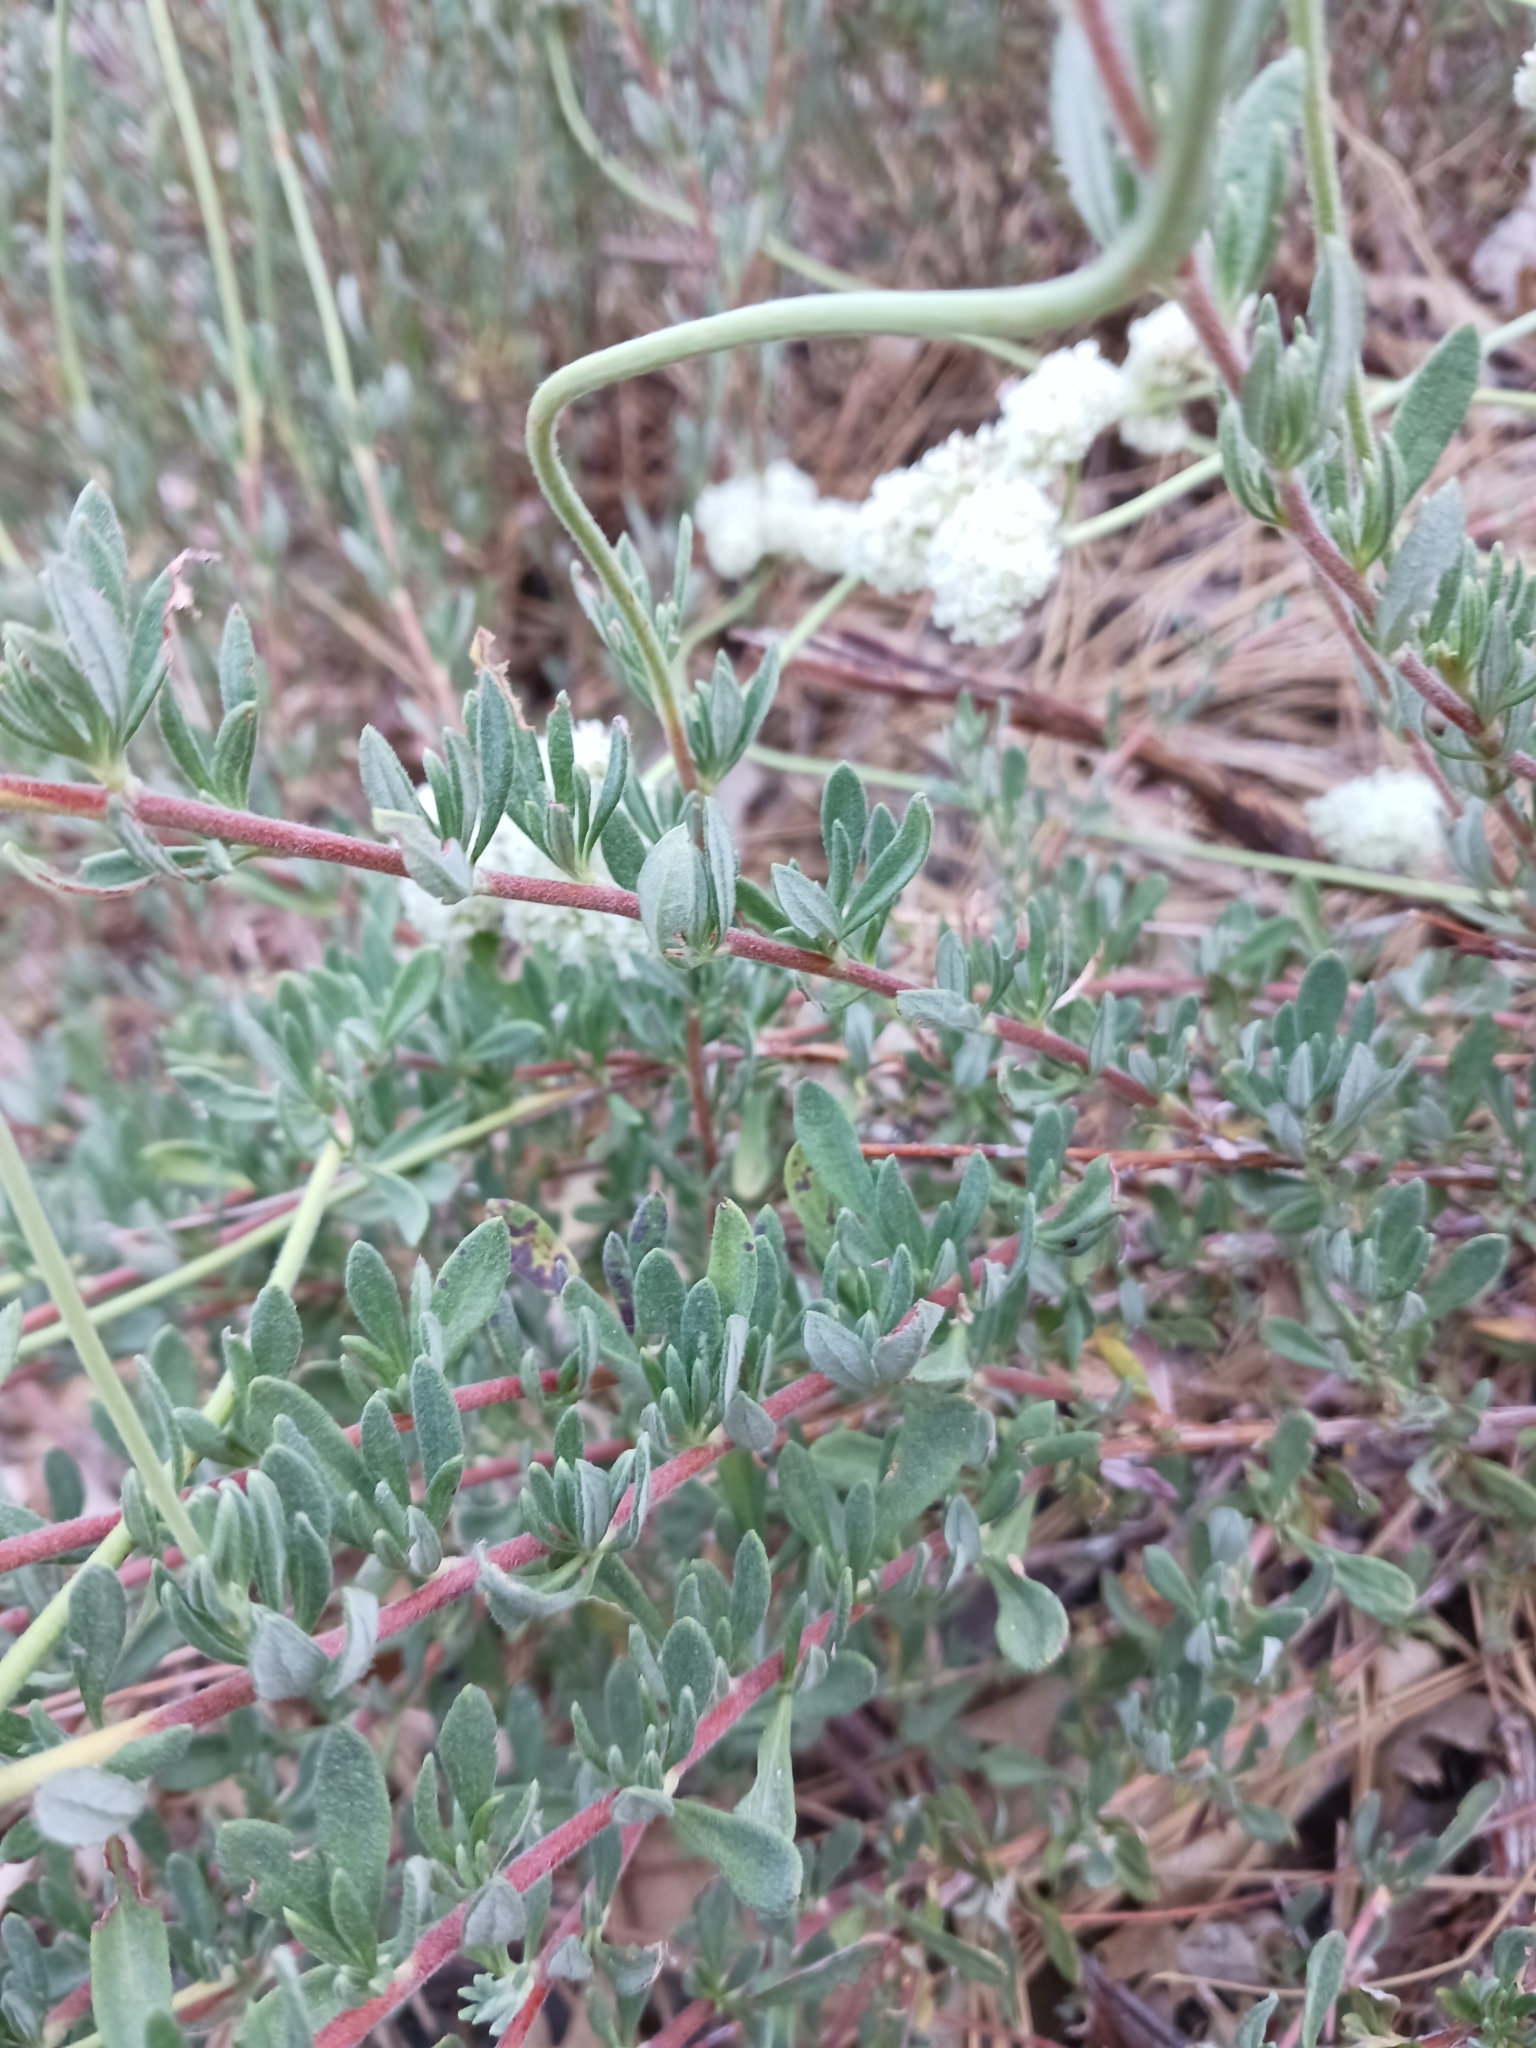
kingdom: Plantae
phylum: Tracheophyta
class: Magnoliopsida
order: Caryophyllales
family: Polygonaceae
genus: Eriogonum
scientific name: Eriogonum fasciculatum
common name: California wild buckwheat
